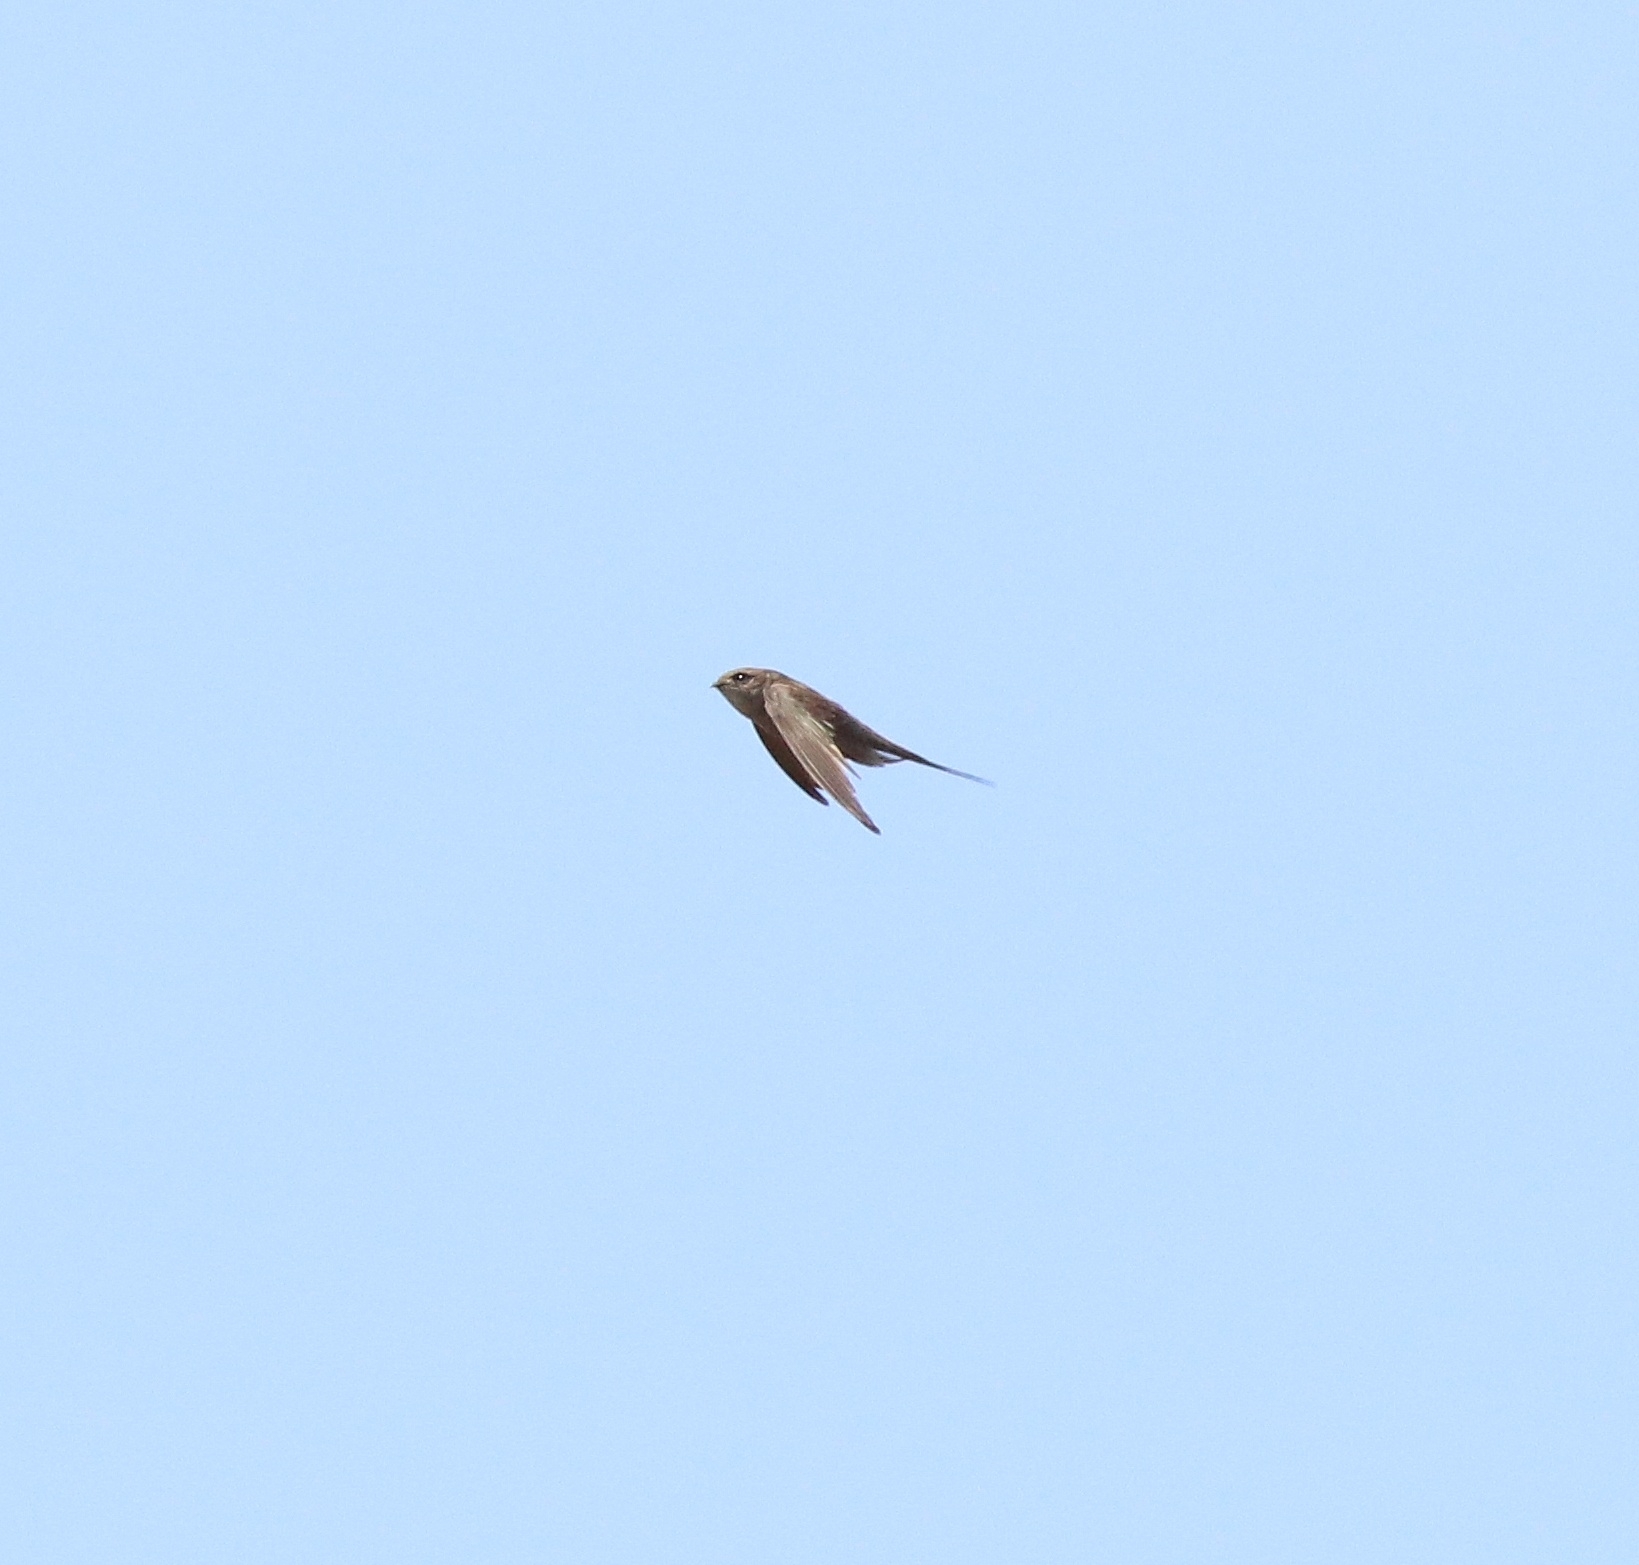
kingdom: Animalia
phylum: Chordata
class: Aves
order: Apodiformes
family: Apodidae
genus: Cypsiurus
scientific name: Cypsiurus balasiensis
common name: Asian palm swift
